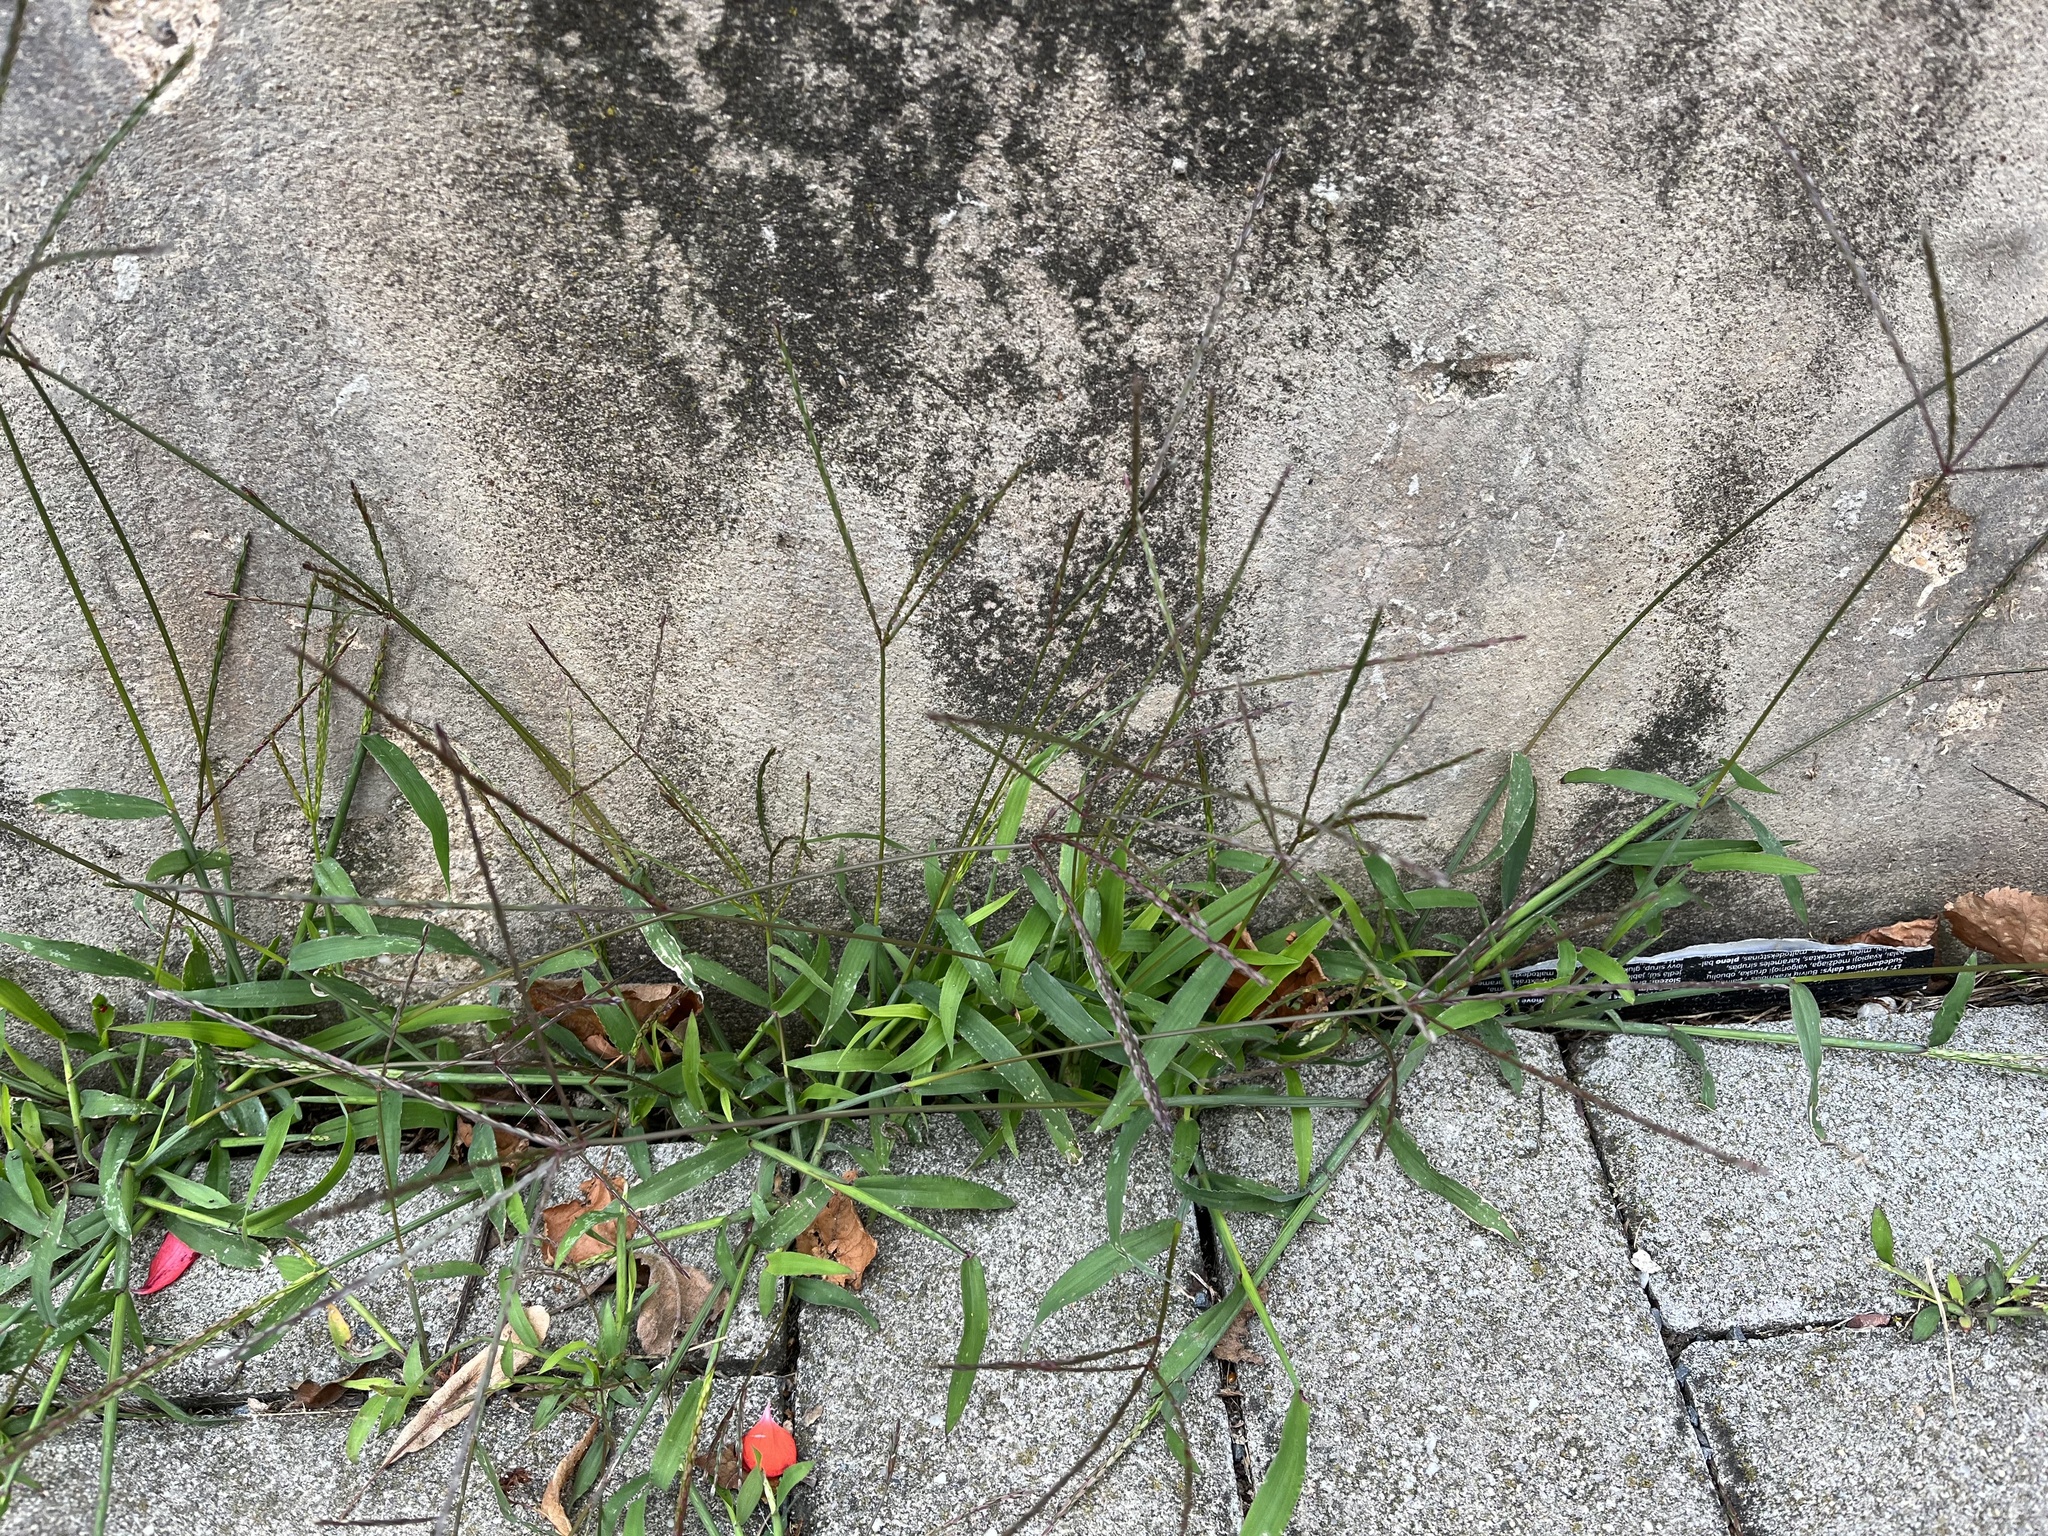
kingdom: Plantae
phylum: Tracheophyta
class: Liliopsida
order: Poales
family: Poaceae
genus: Digitaria
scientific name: Digitaria sanguinalis
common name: Hairy crabgrass
